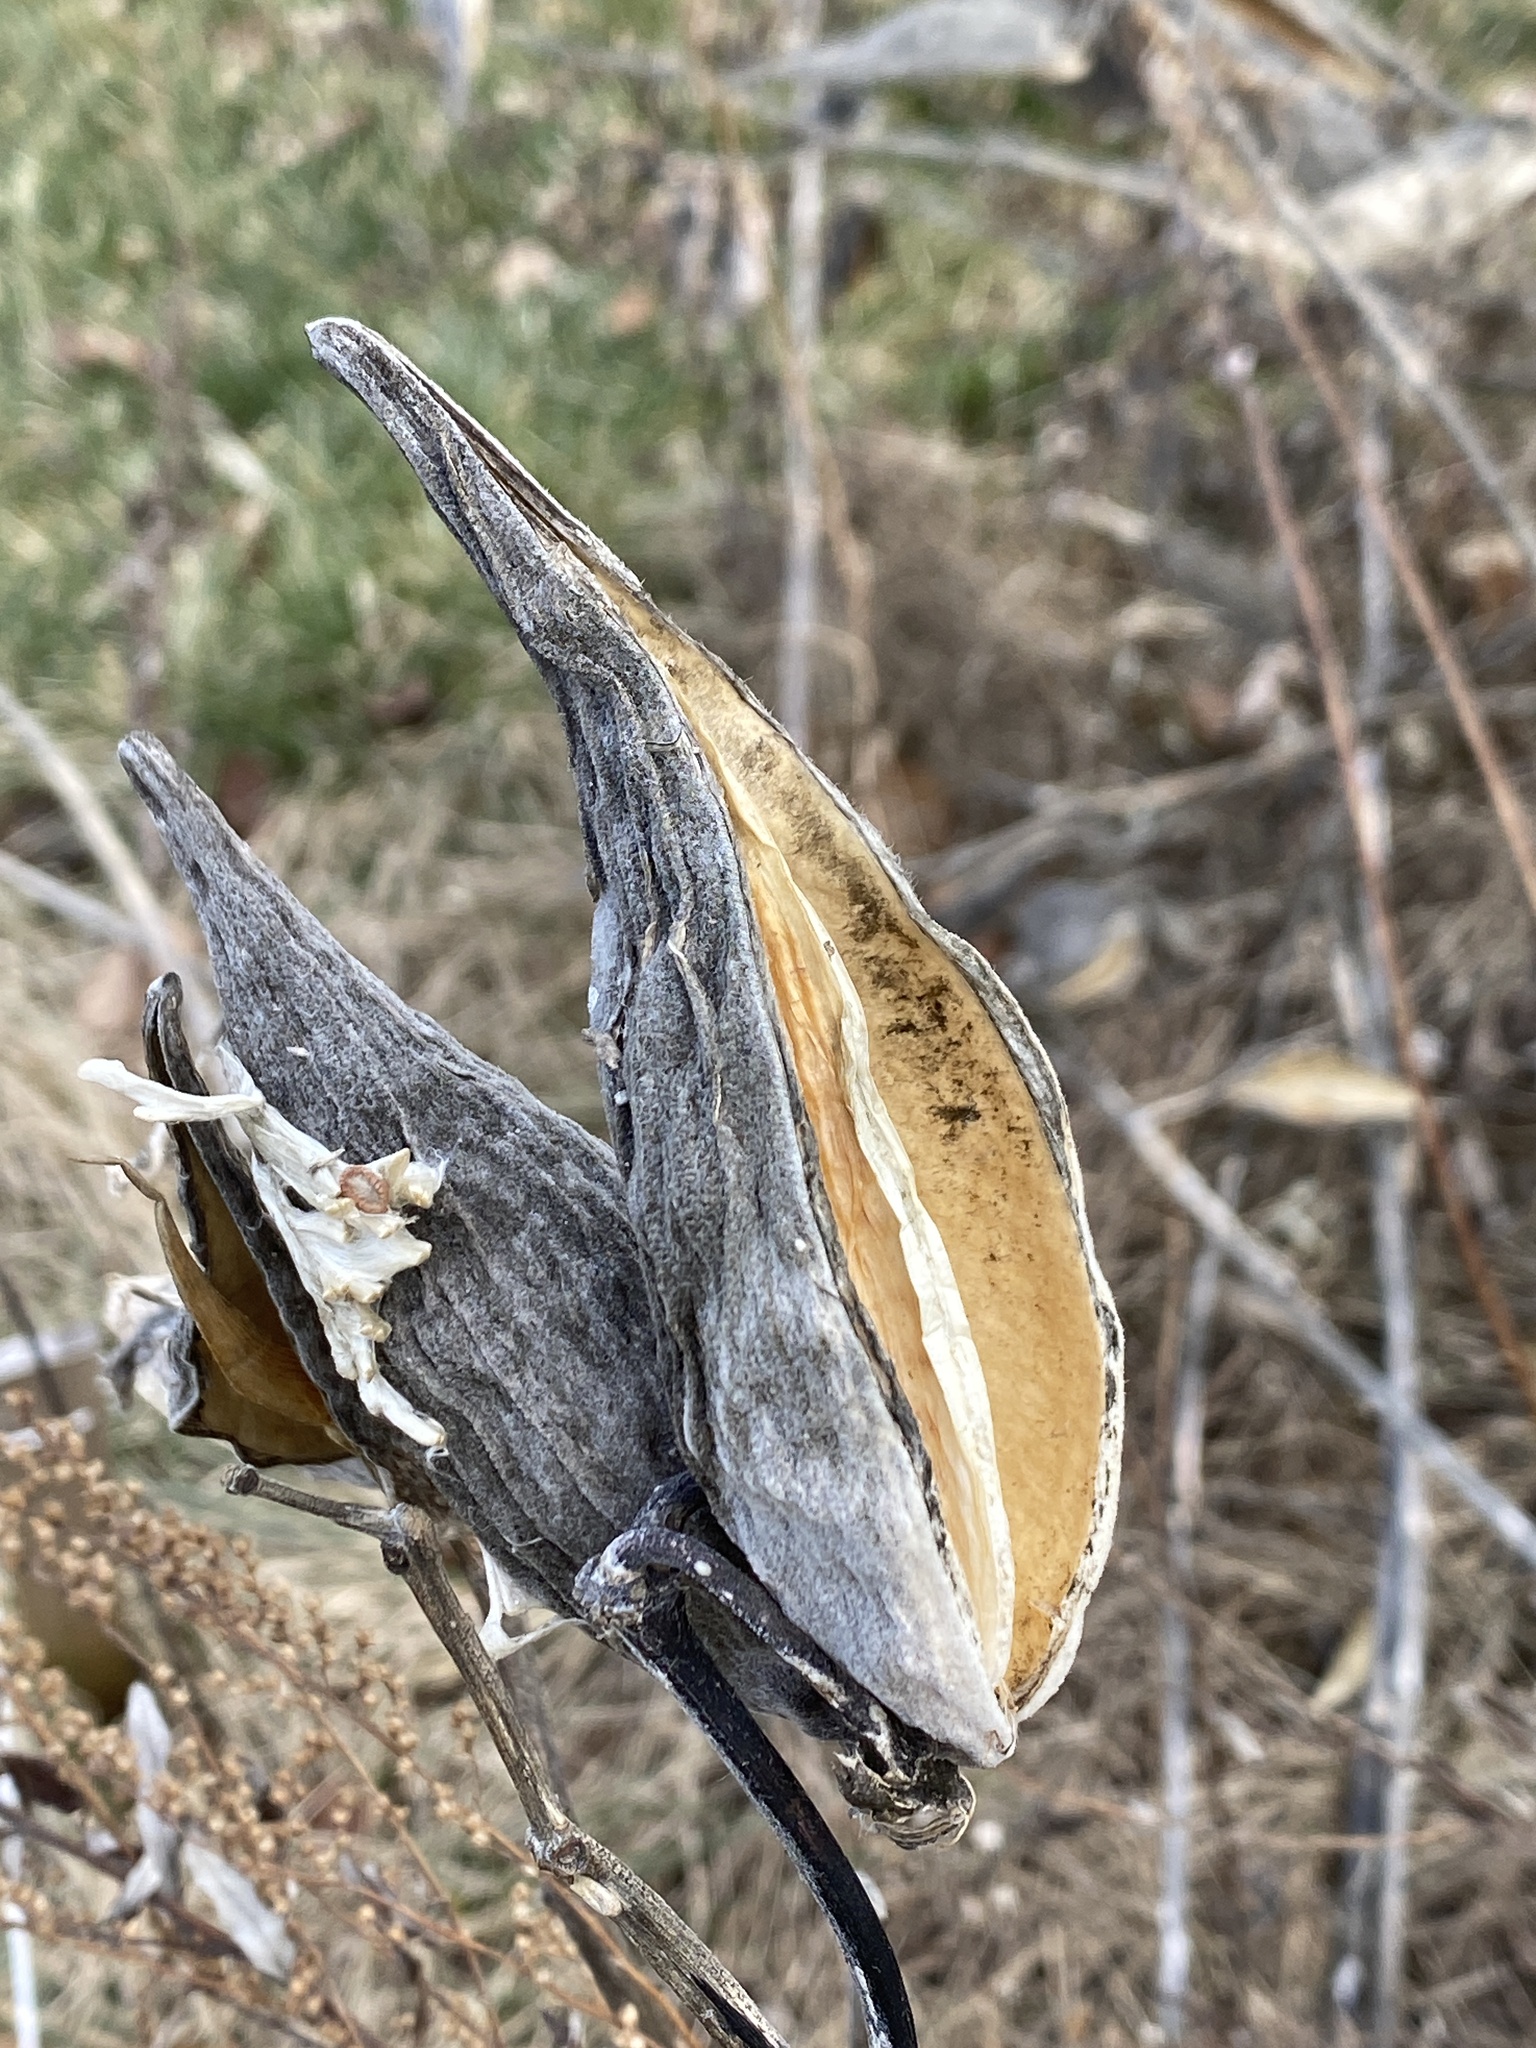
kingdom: Plantae
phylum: Tracheophyta
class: Magnoliopsida
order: Gentianales
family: Apocynaceae
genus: Asclepias
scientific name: Asclepias syriaca
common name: Common milkweed
